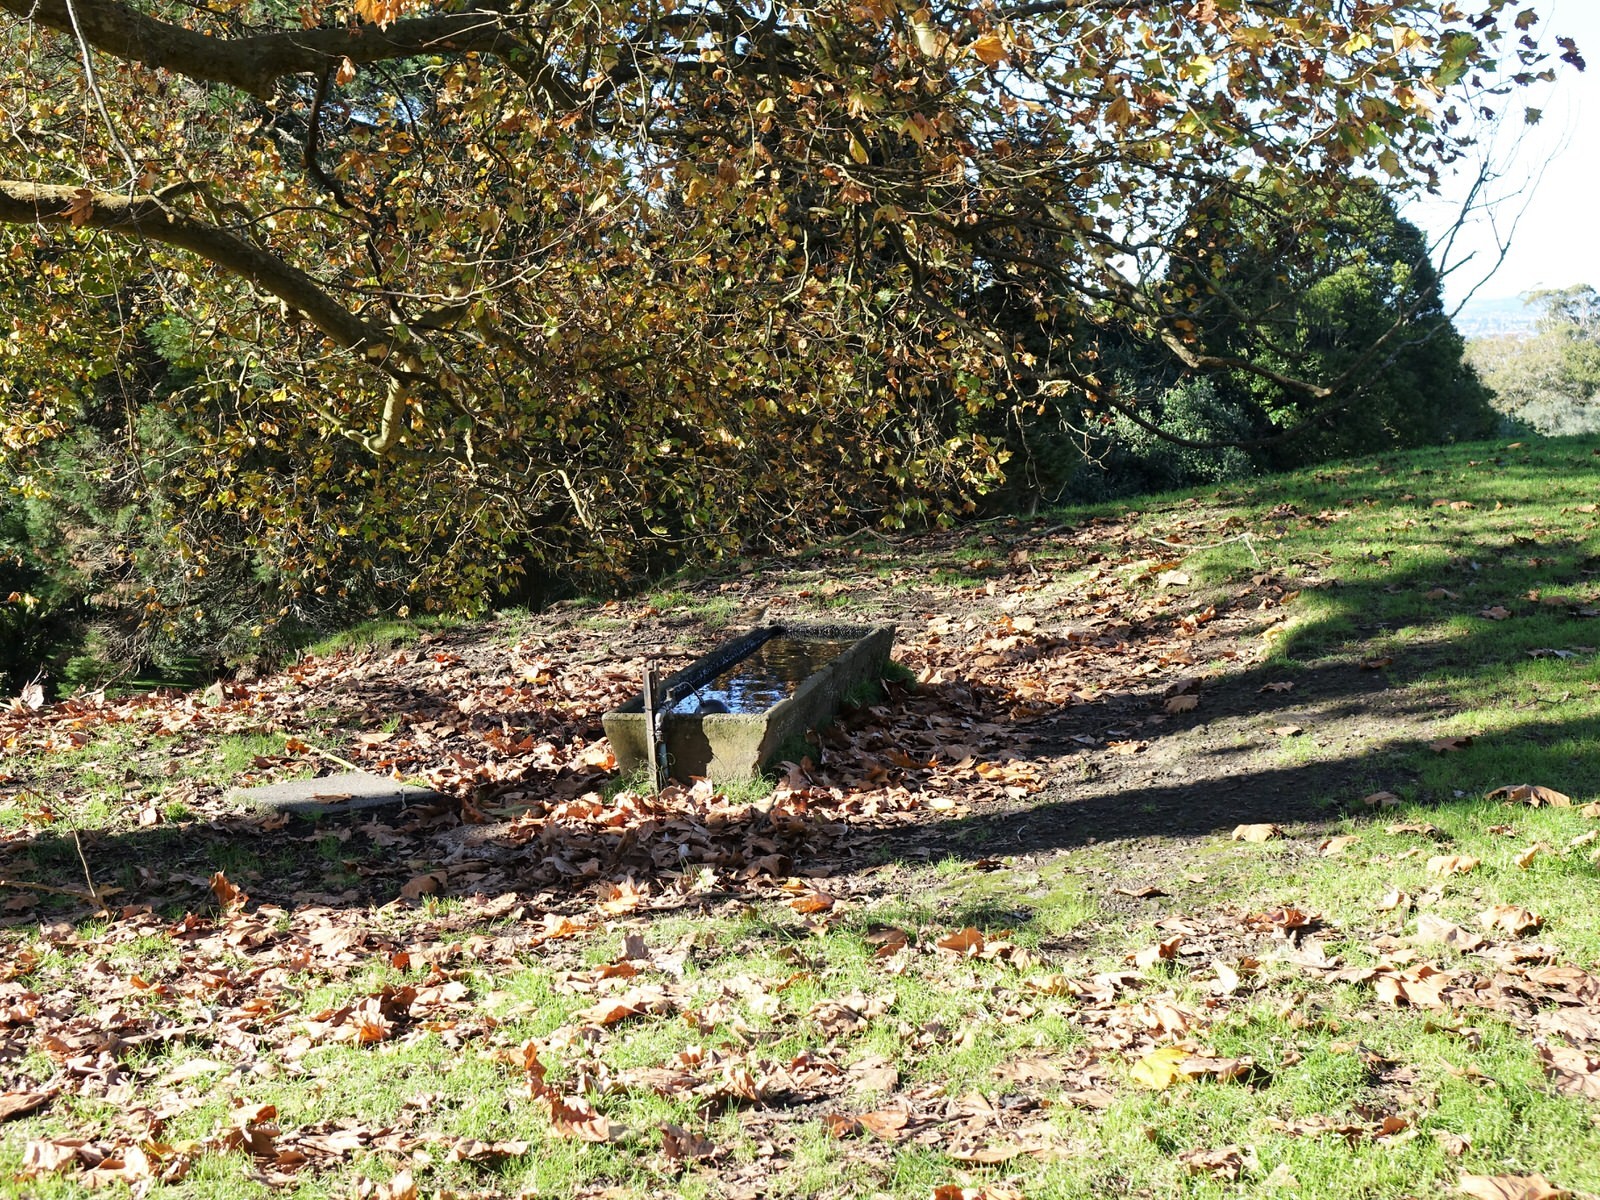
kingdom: Animalia
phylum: Chordata
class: Aves
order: Passeriformes
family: Turdidae
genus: Turdus
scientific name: Turdus philomelos
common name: Song thrush
